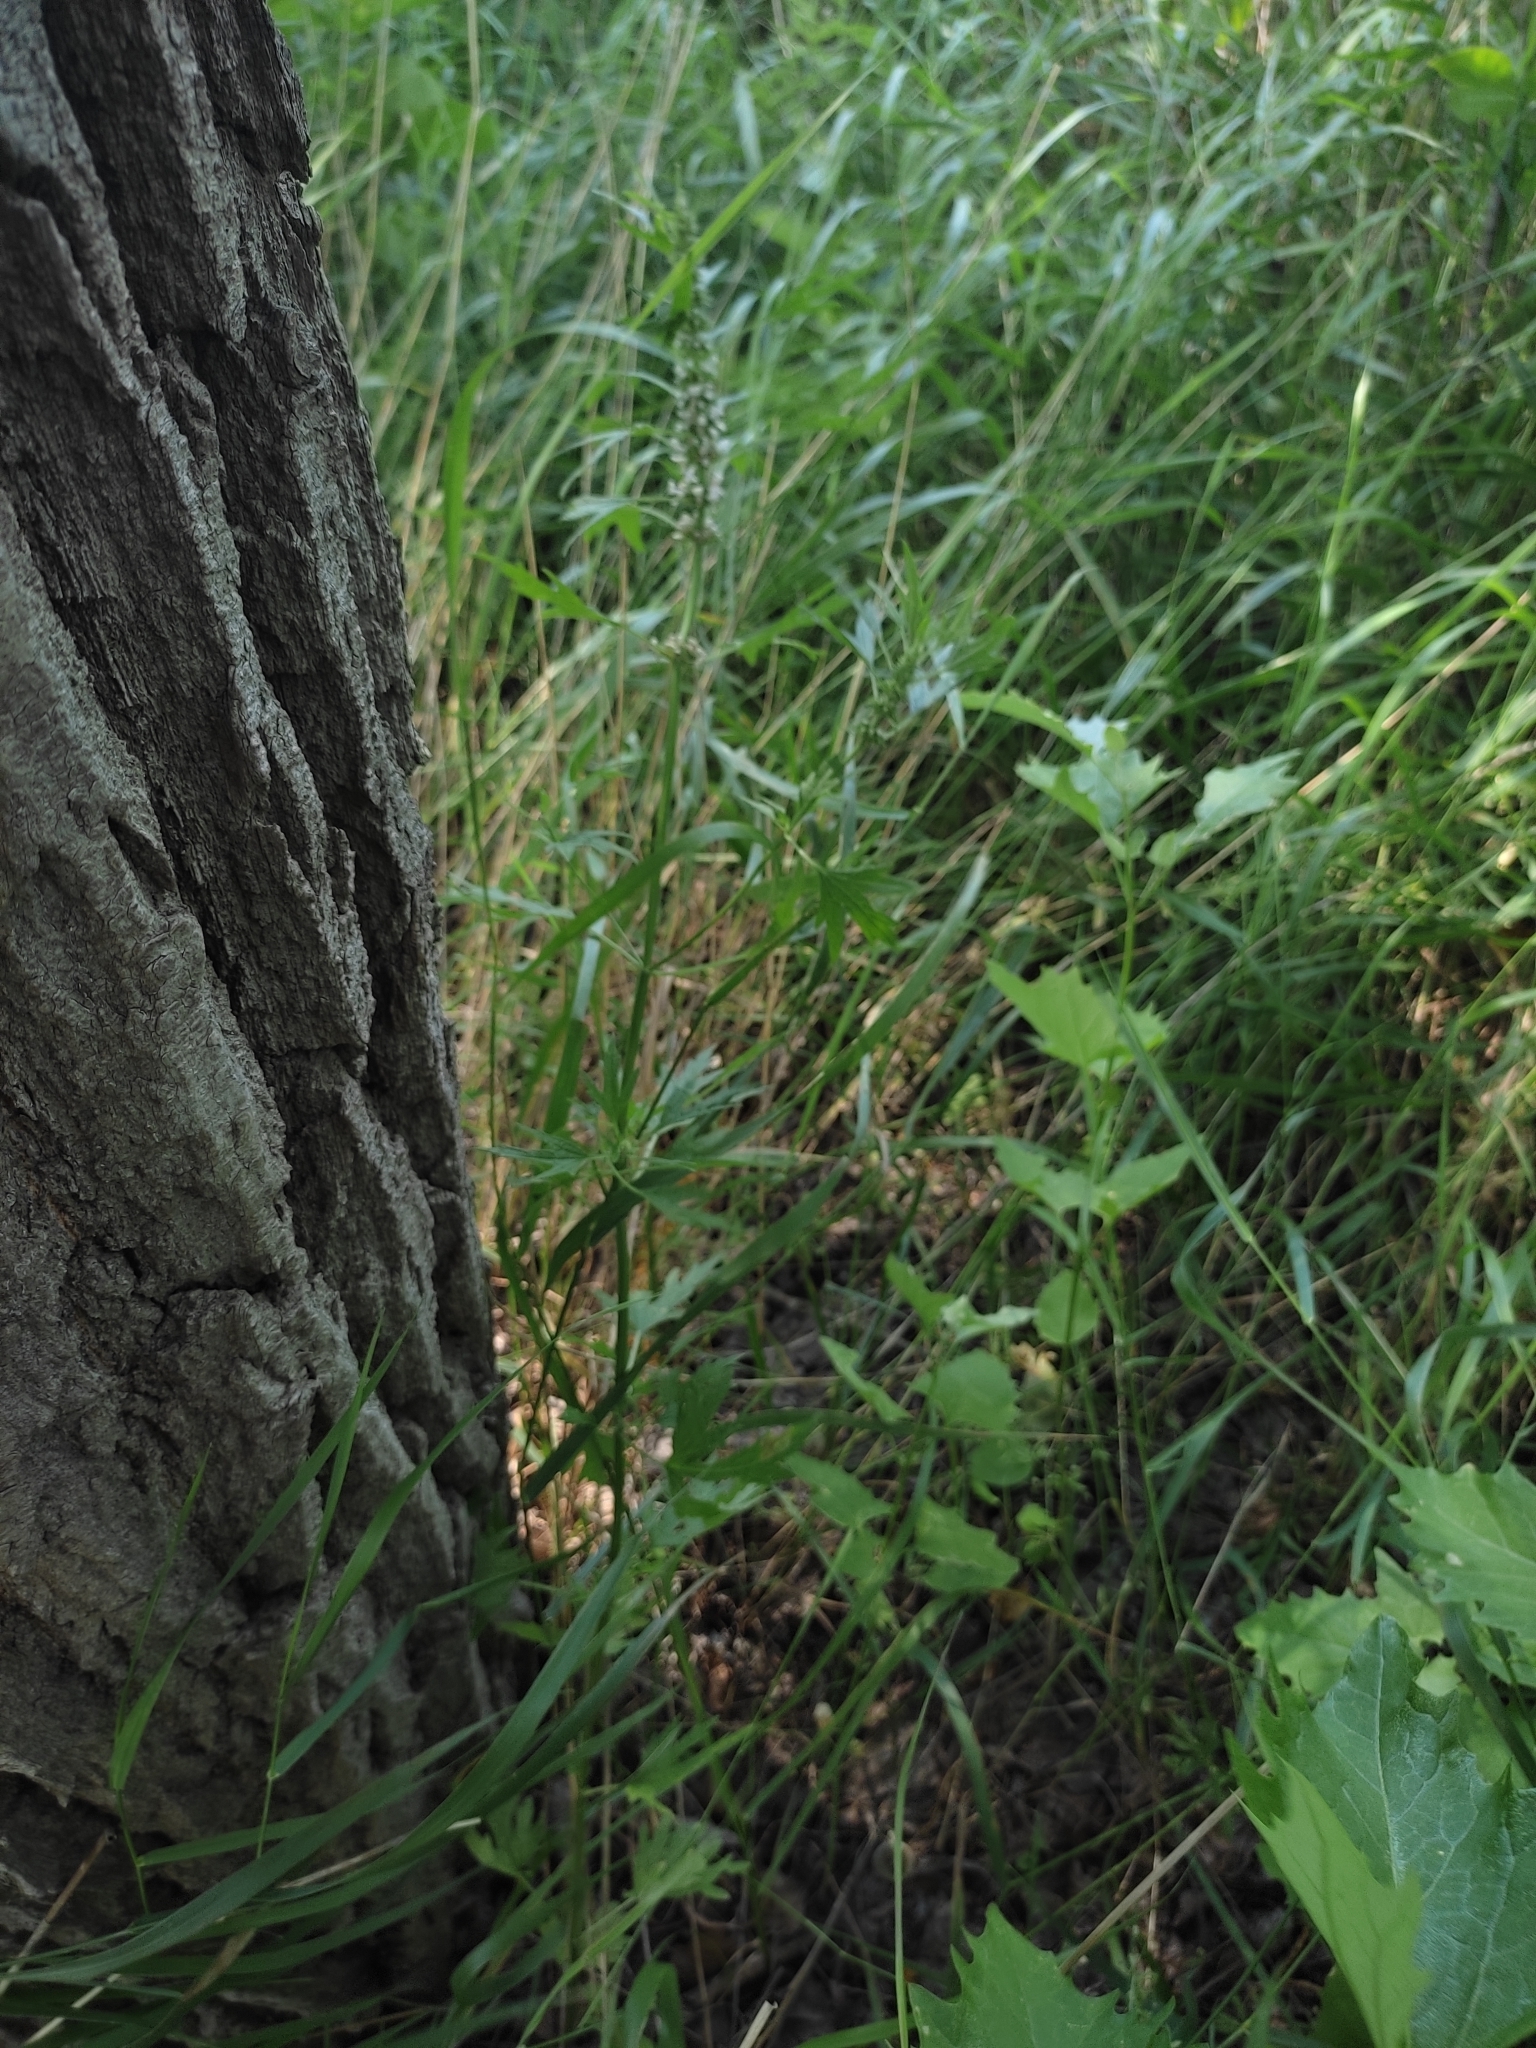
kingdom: Plantae
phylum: Tracheophyta
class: Magnoliopsida
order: Lamiales
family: Lamiaceae
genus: Leonurus
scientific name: Leonurus glaucescens
